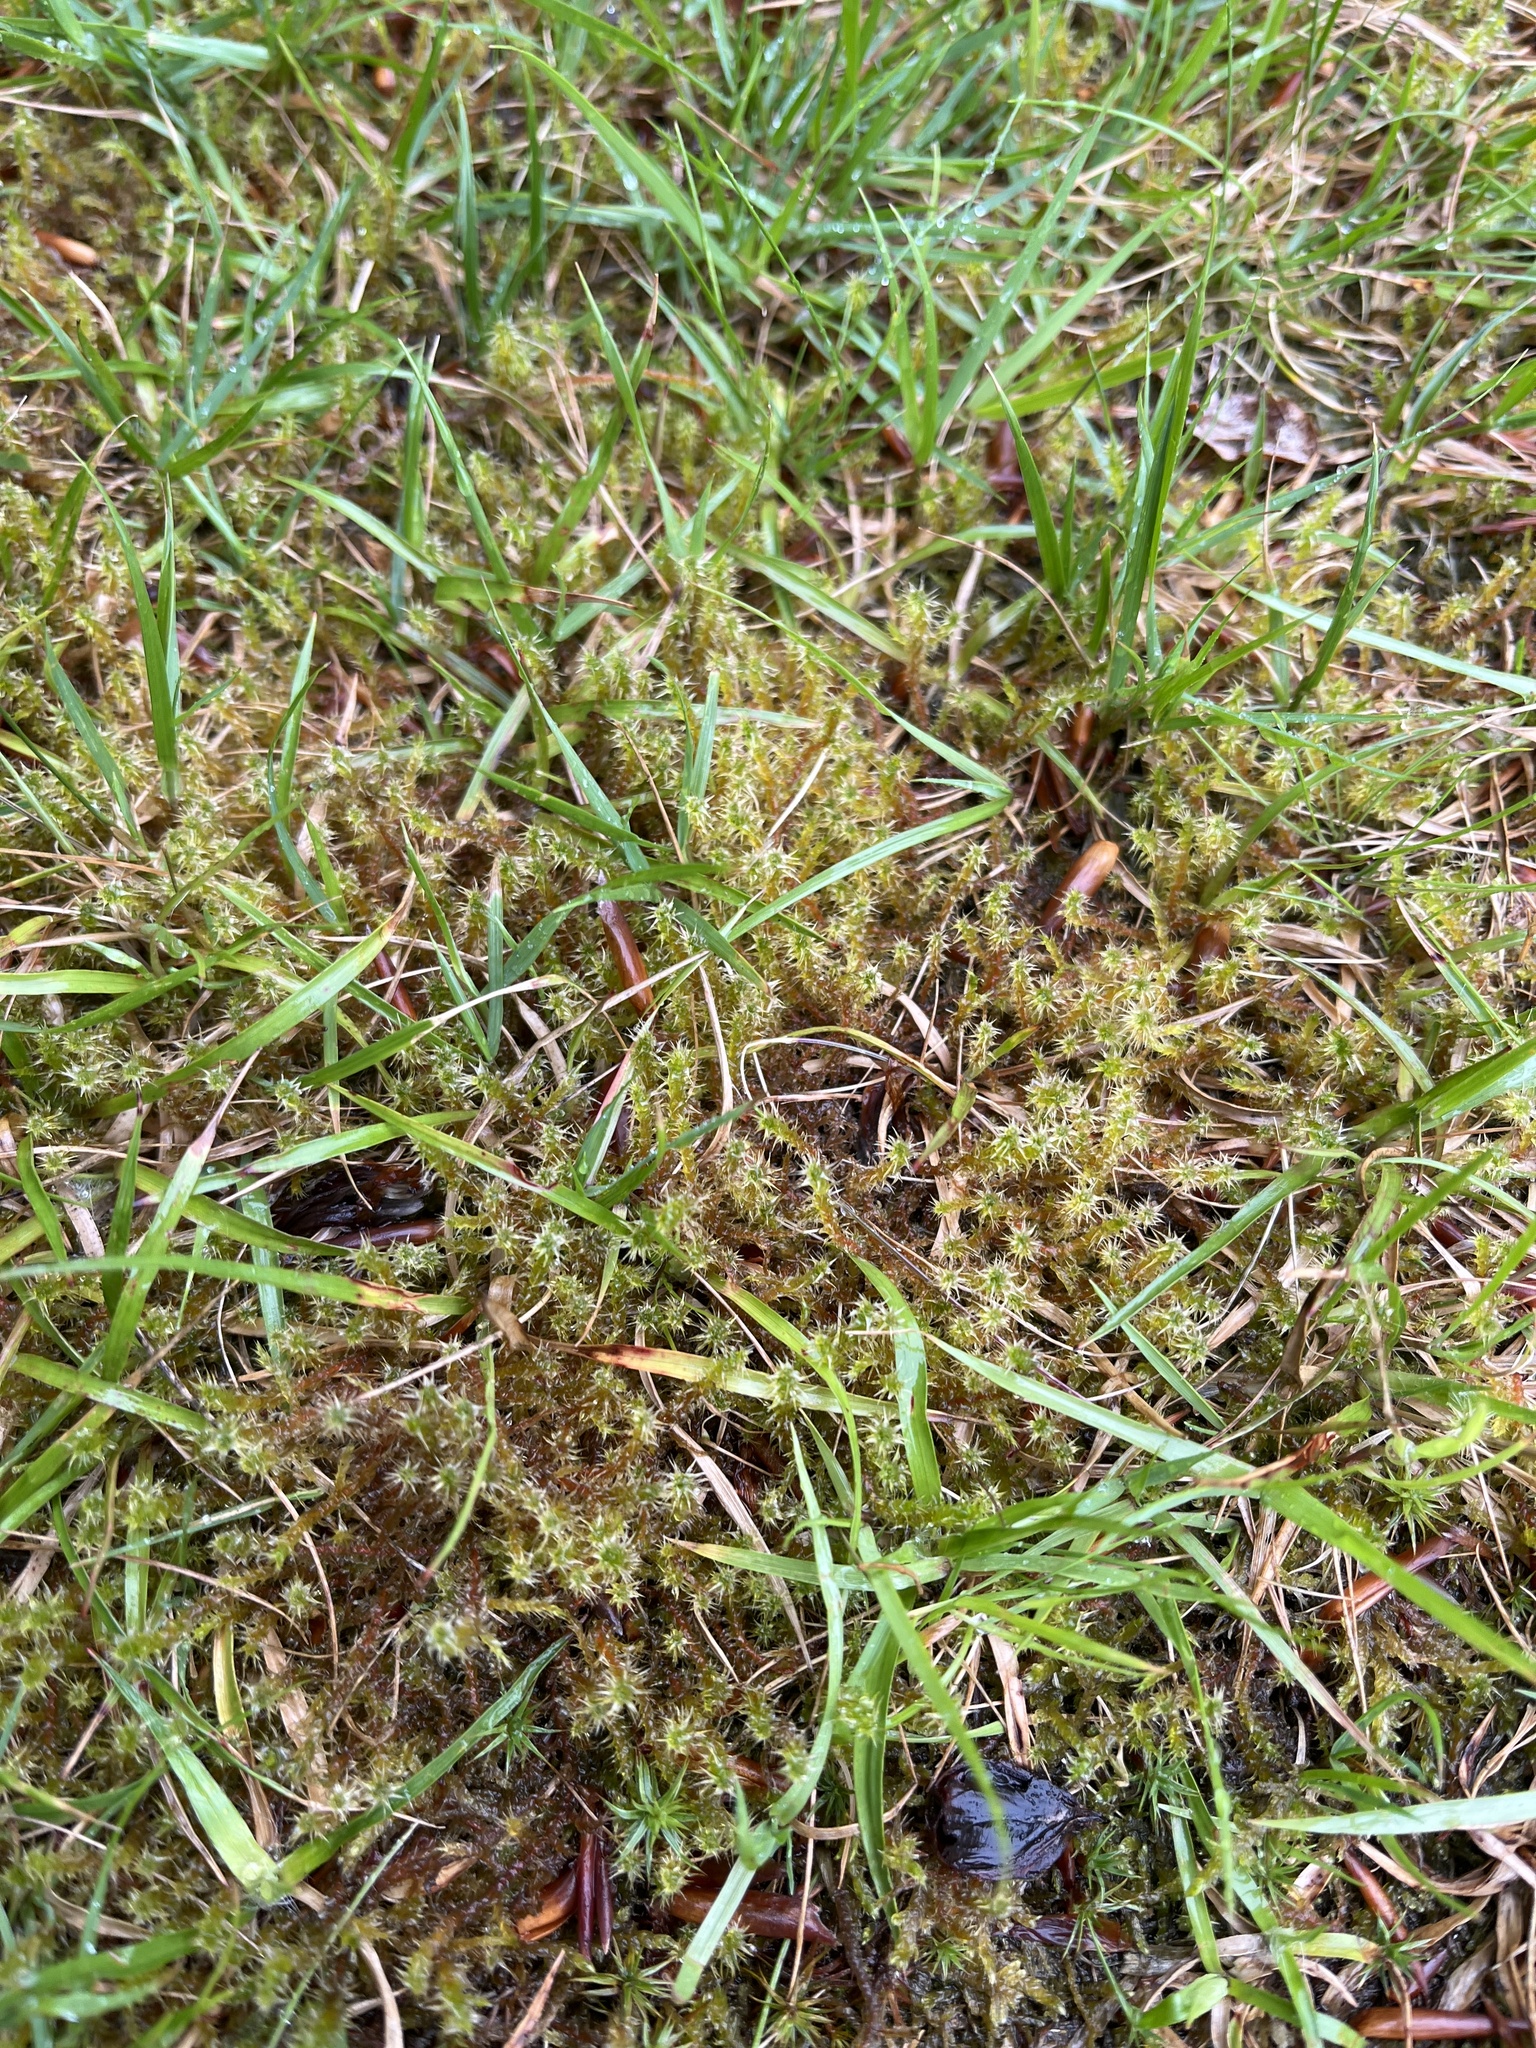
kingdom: Plantae
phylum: Bryophyta
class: Bryopsida
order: Hypnales
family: Hylocomiaceae
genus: Rhytidiadelphus
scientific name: Rhytidiadelphus squarrosus
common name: Springy turf-moss
